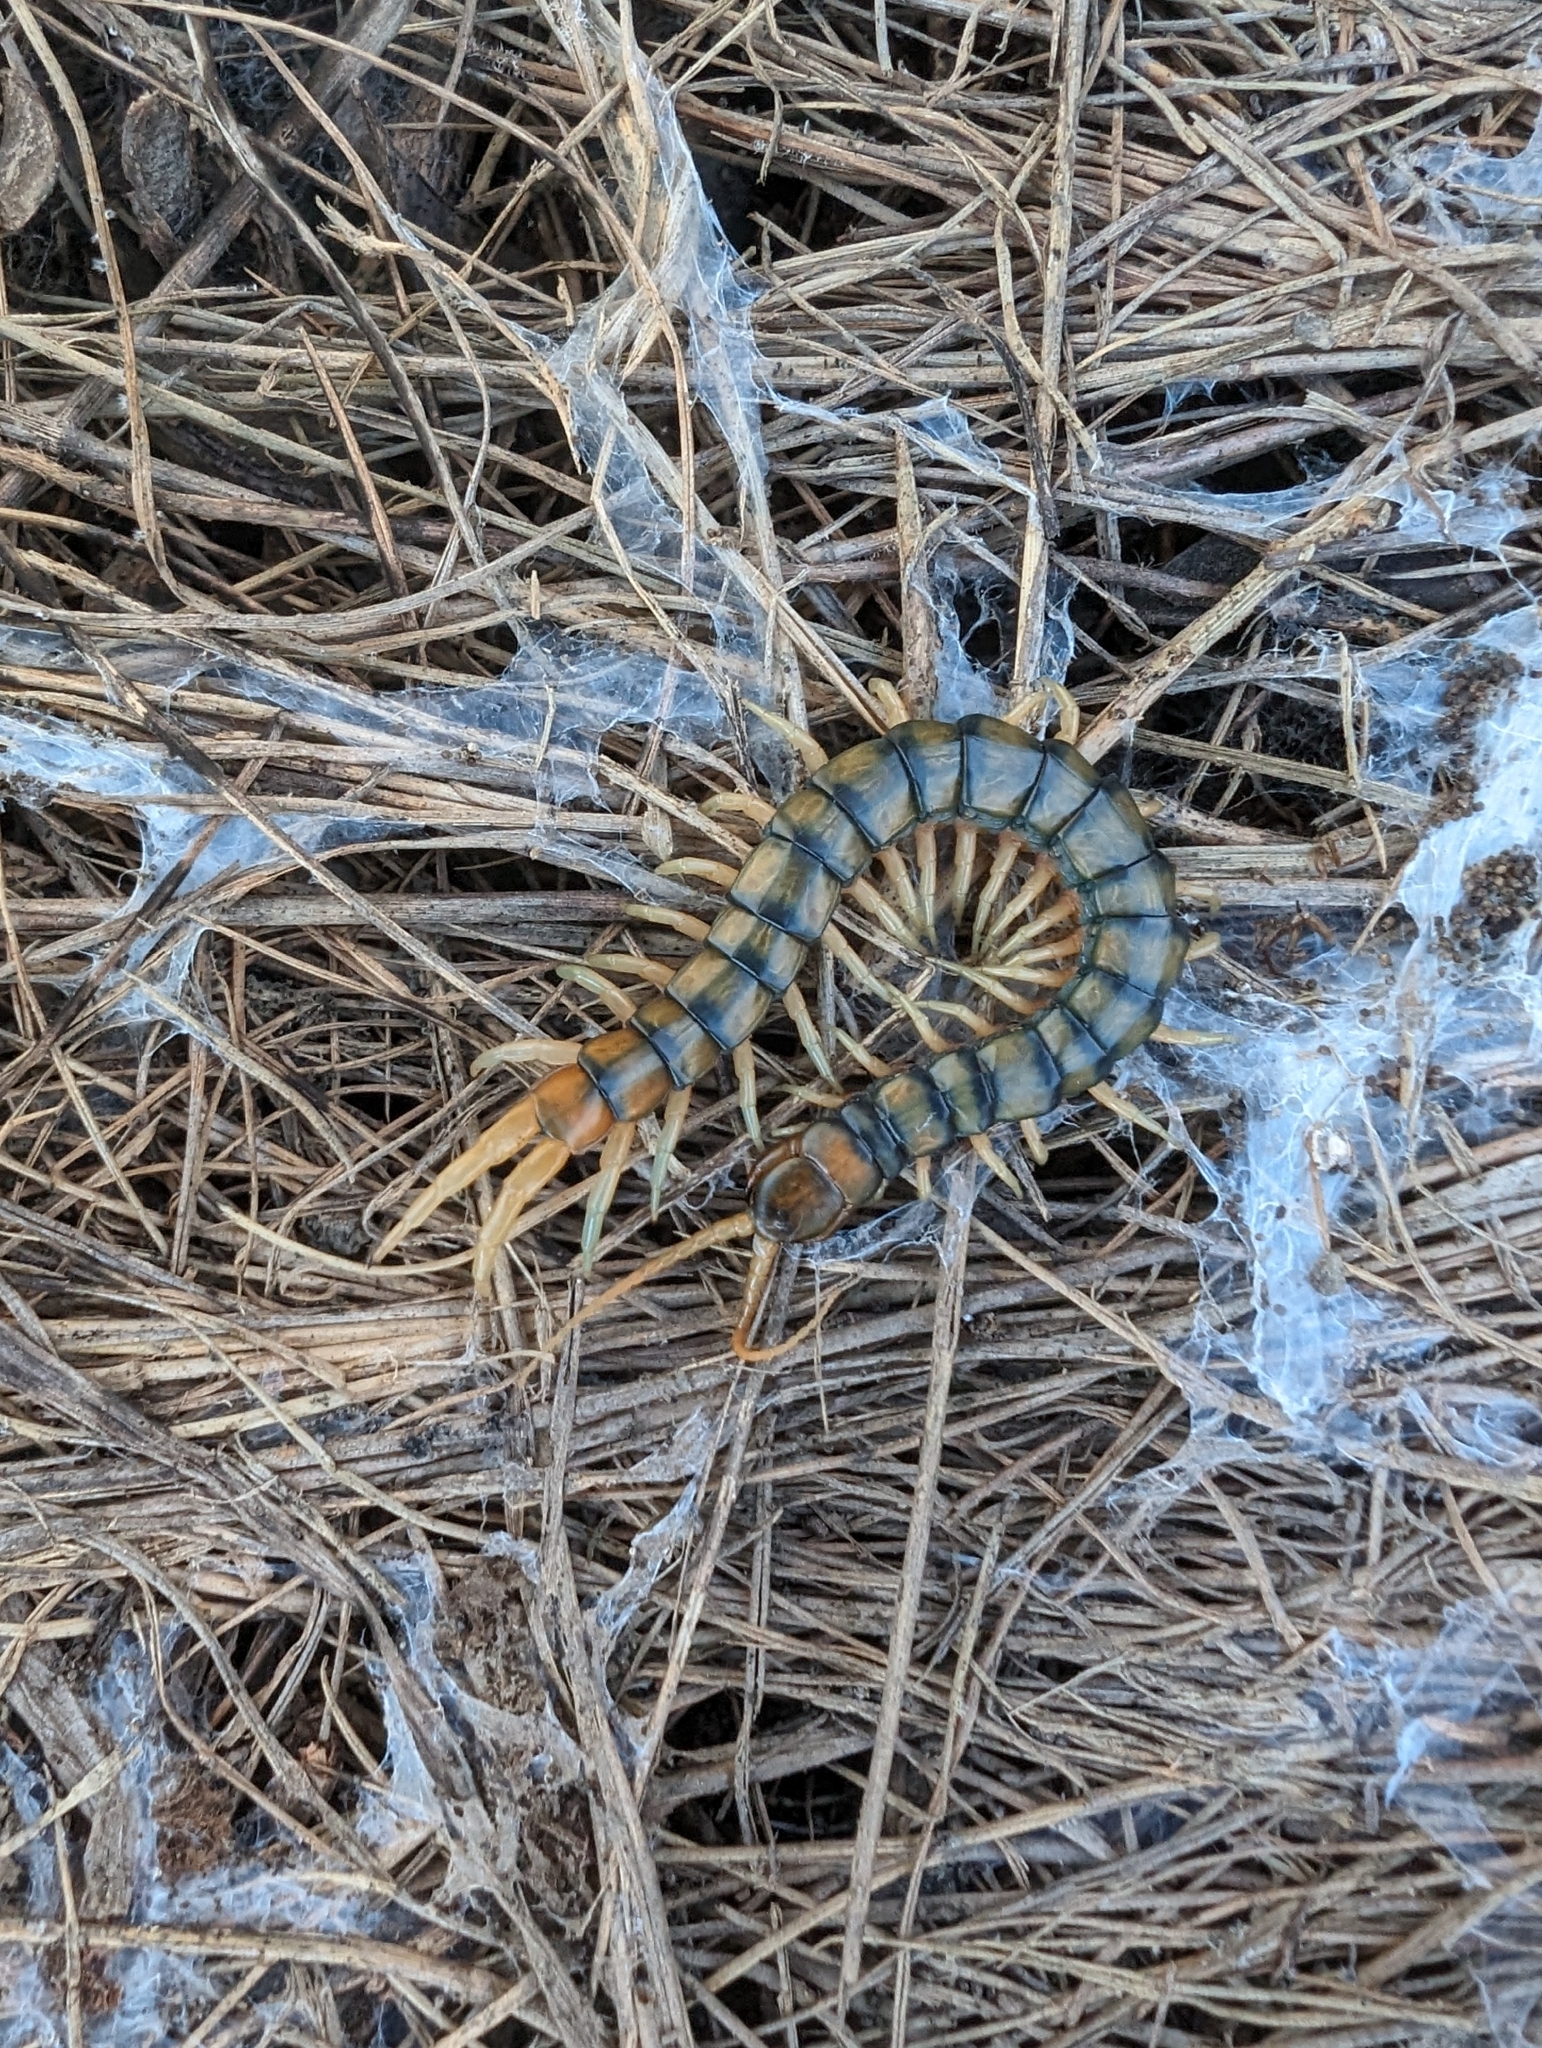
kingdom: Animalia
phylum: Arthropoda
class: Chilopoda
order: Scolopendromorpha
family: Scolopendridae
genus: Scolopendra
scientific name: Scolopendra cingulata
